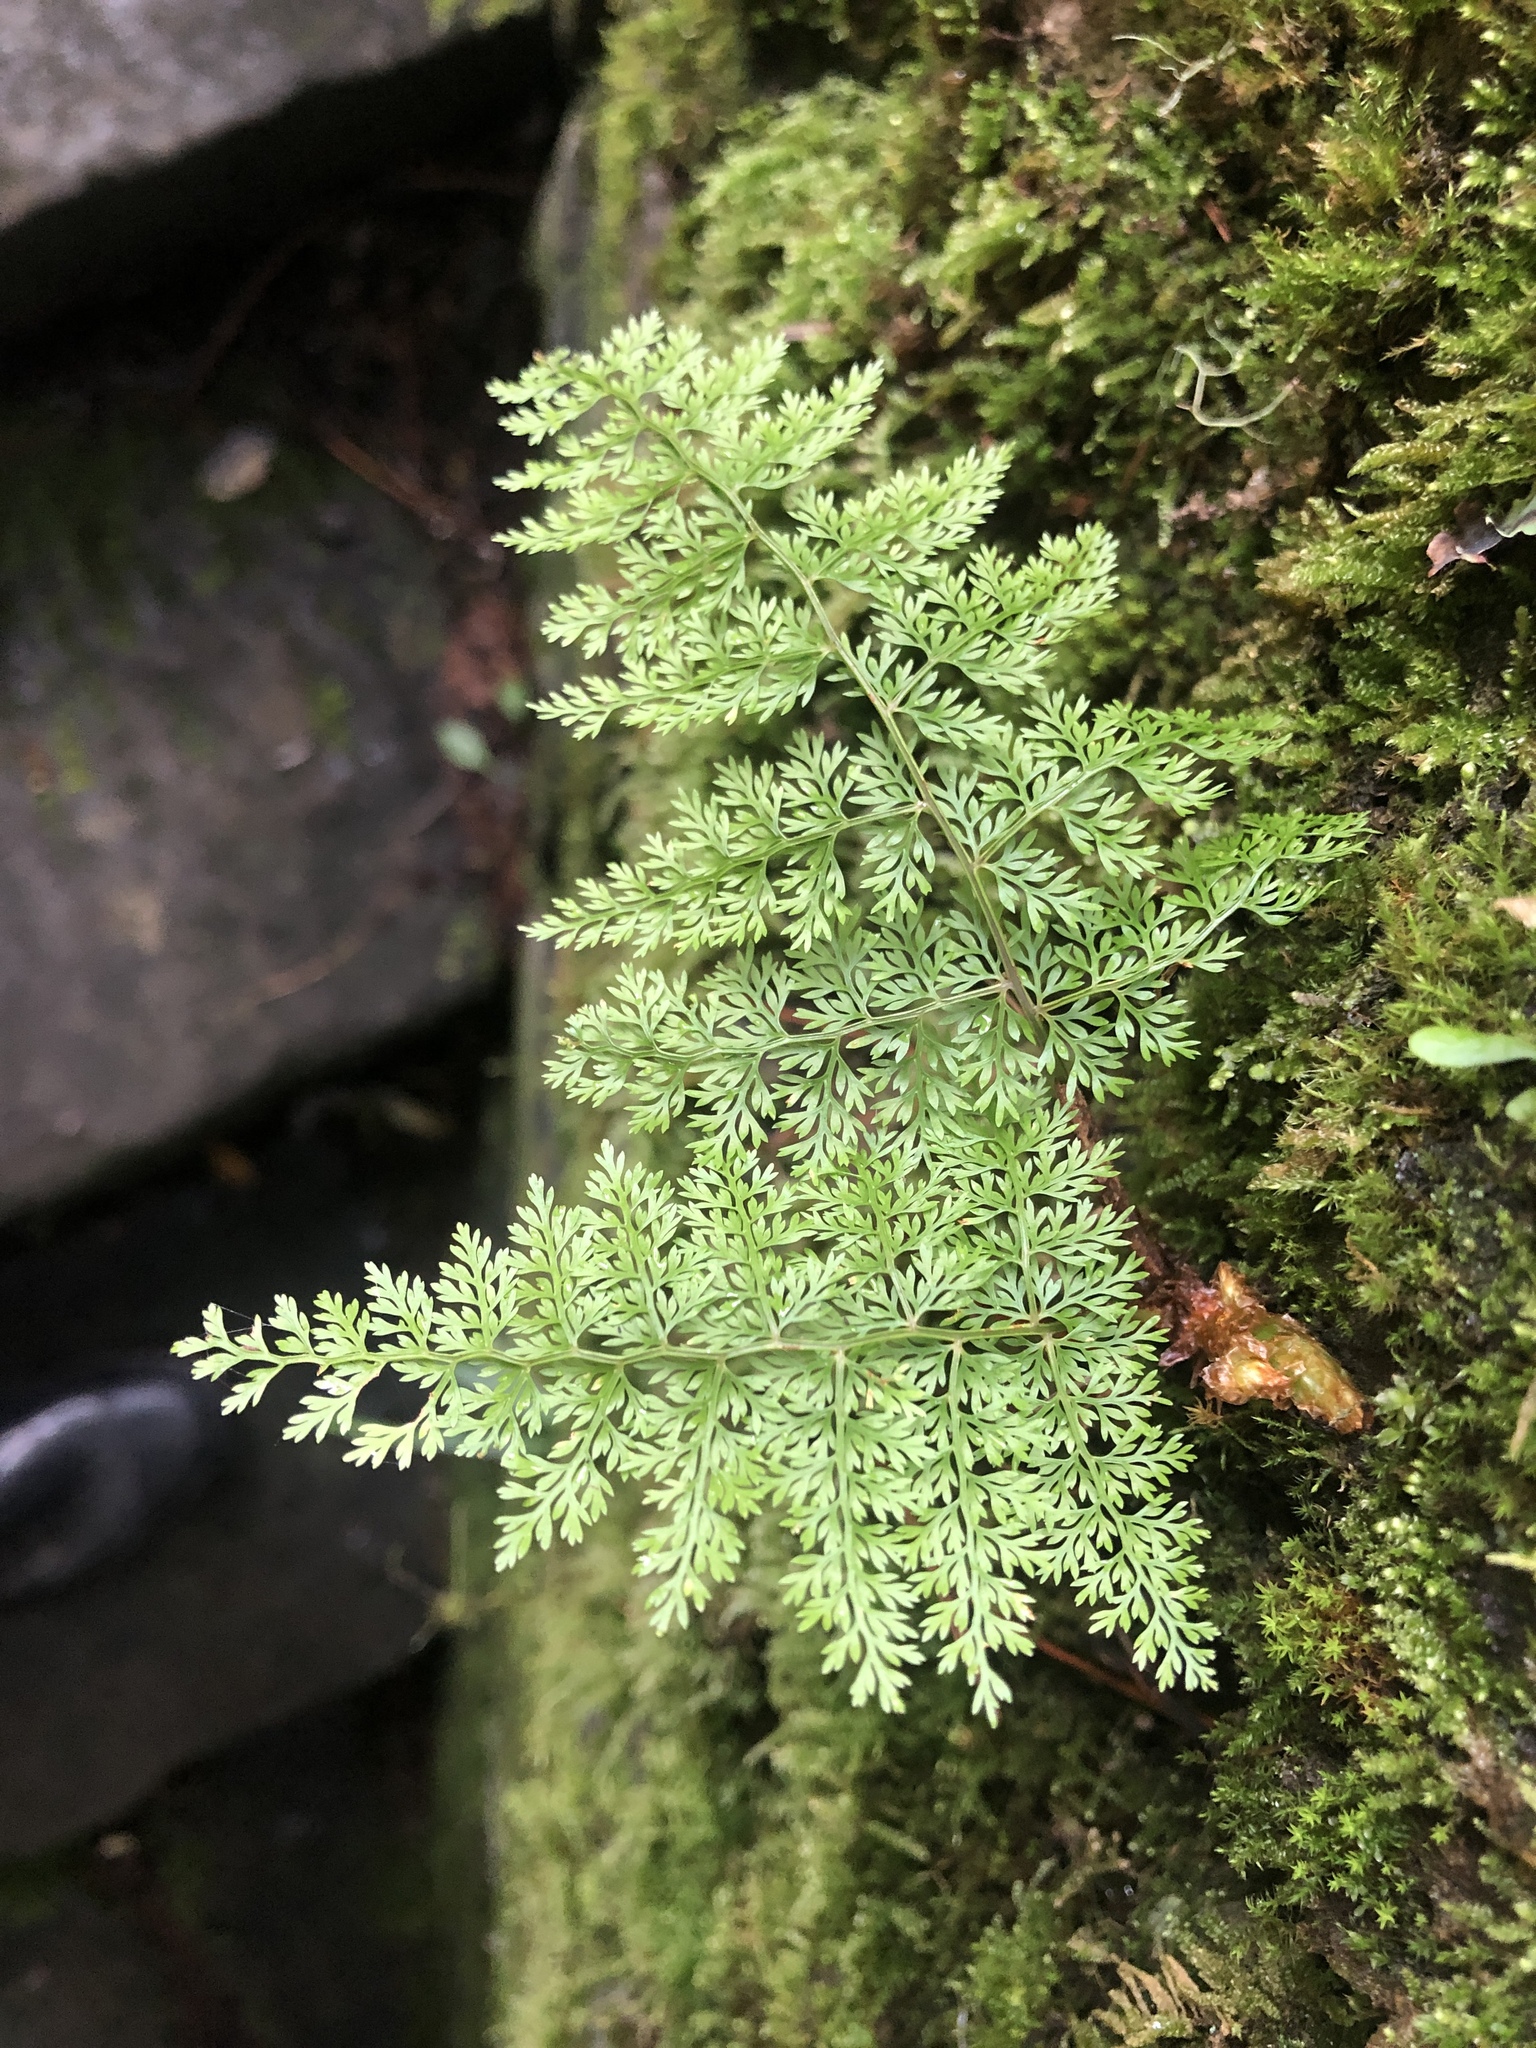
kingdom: Plantae
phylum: Tracheophyta
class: Polypodiopsida
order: Polypodiales
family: Davalliaceae
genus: Davallia
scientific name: Davallia perdurans
